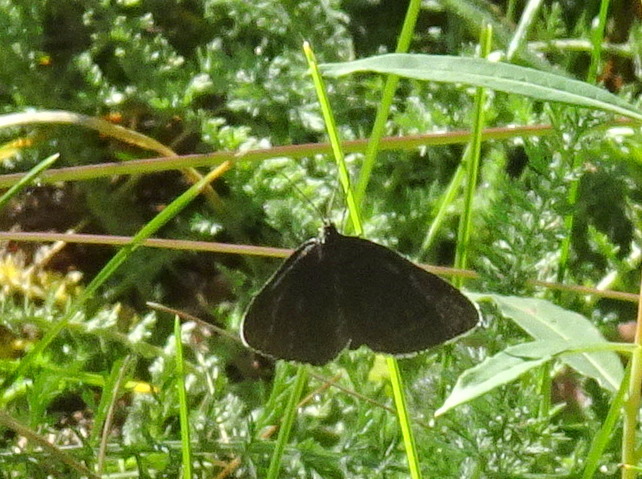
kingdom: Animalia
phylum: Arthropoda
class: Insecta
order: Lepidoptera
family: Geometridae
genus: Odezia
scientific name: Odezia atrata
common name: Chimney sweeper
